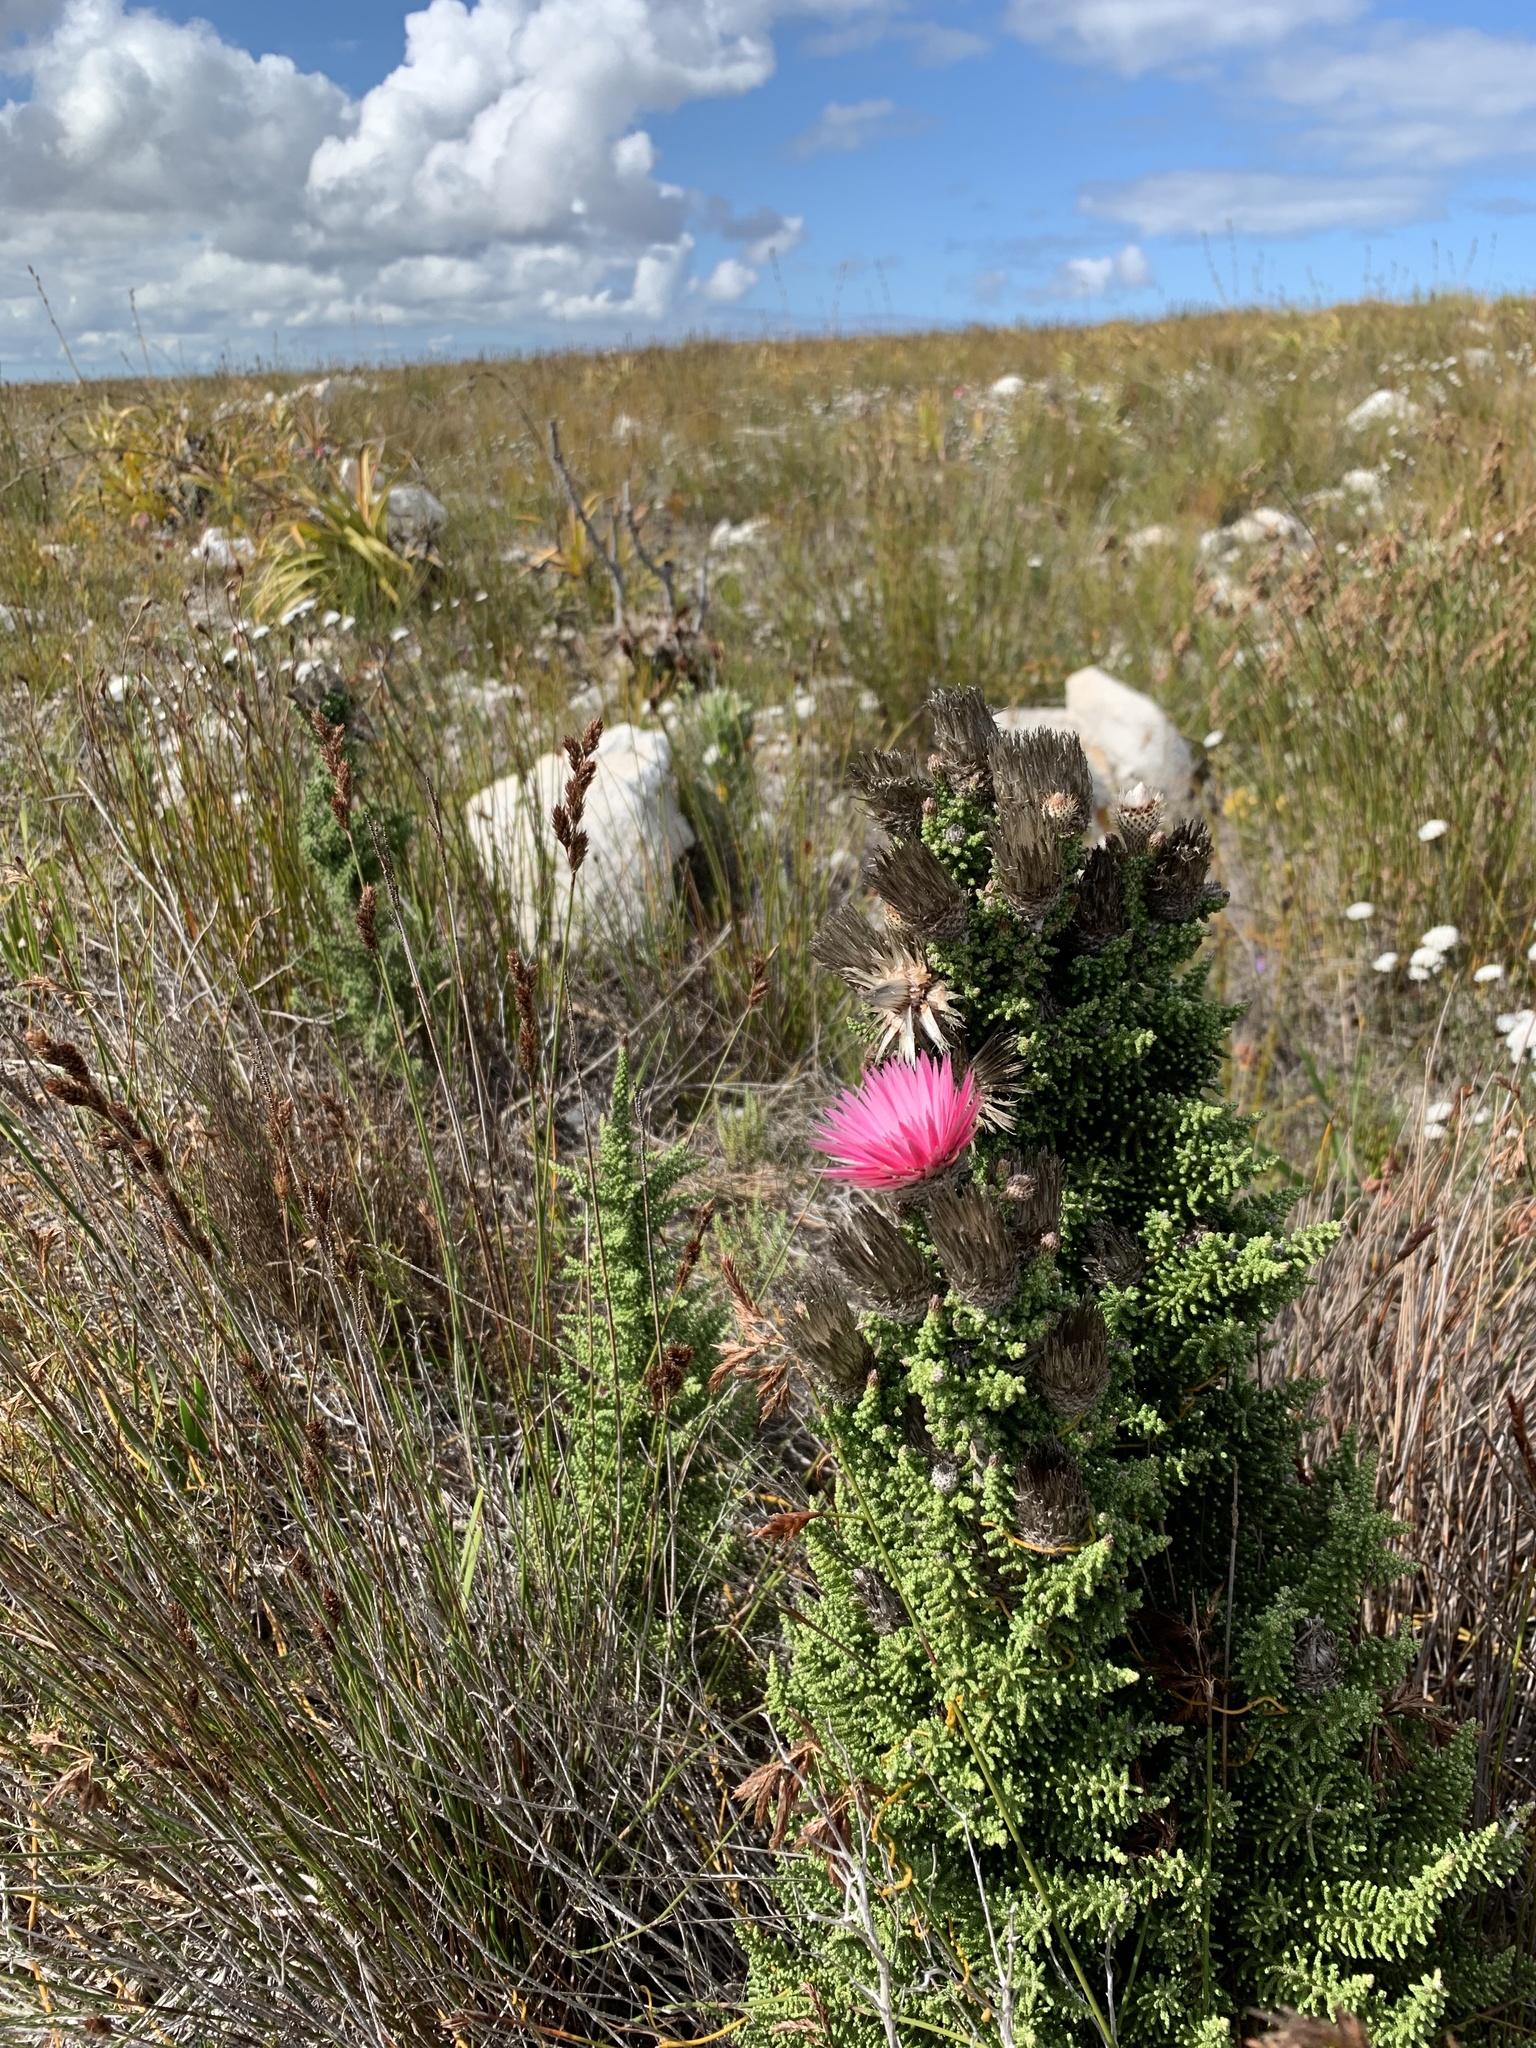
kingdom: Plantae
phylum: Tracheophyta
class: Magnoliopsida
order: Asterales
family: Asteraceae
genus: Phaenocoma
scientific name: Phaenocoma prolifera
